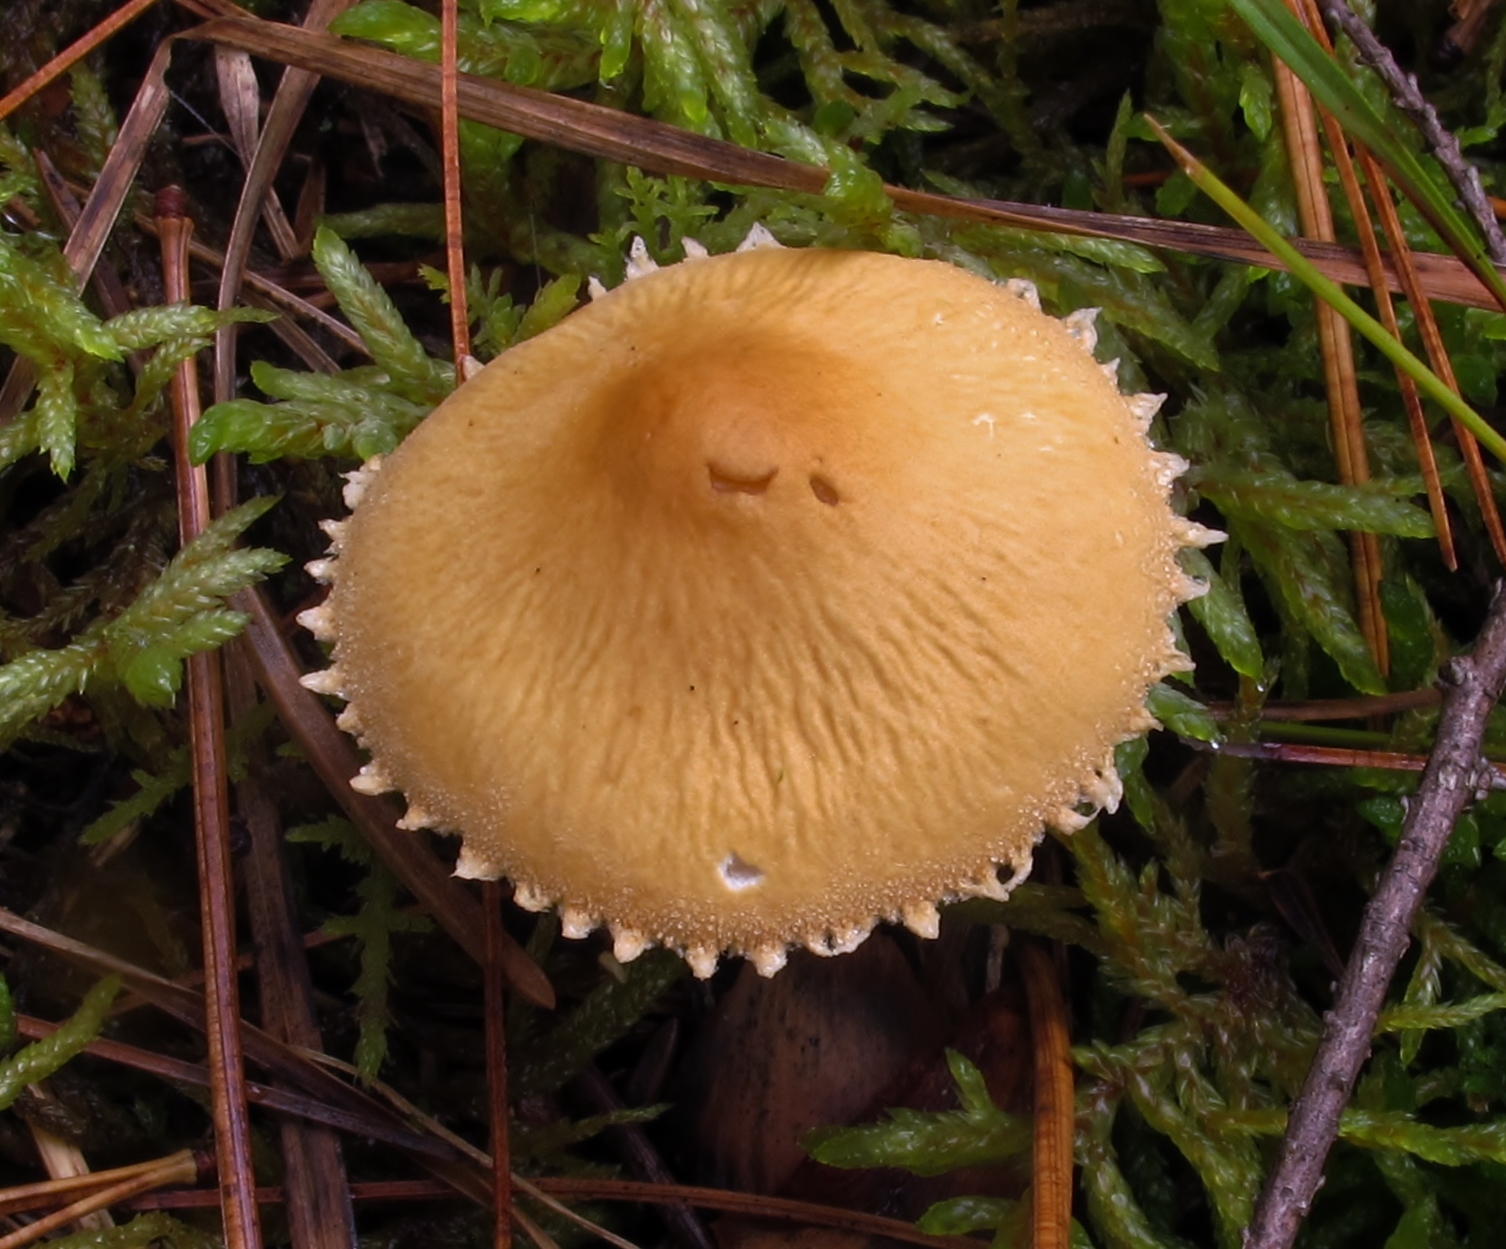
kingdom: Fungi
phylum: Basidiomycota
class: Agaricomycetes
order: Agaricales
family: Tricholomataceae
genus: Cystoderma
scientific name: Cystoderma amianthinum
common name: Earthy powdercap
